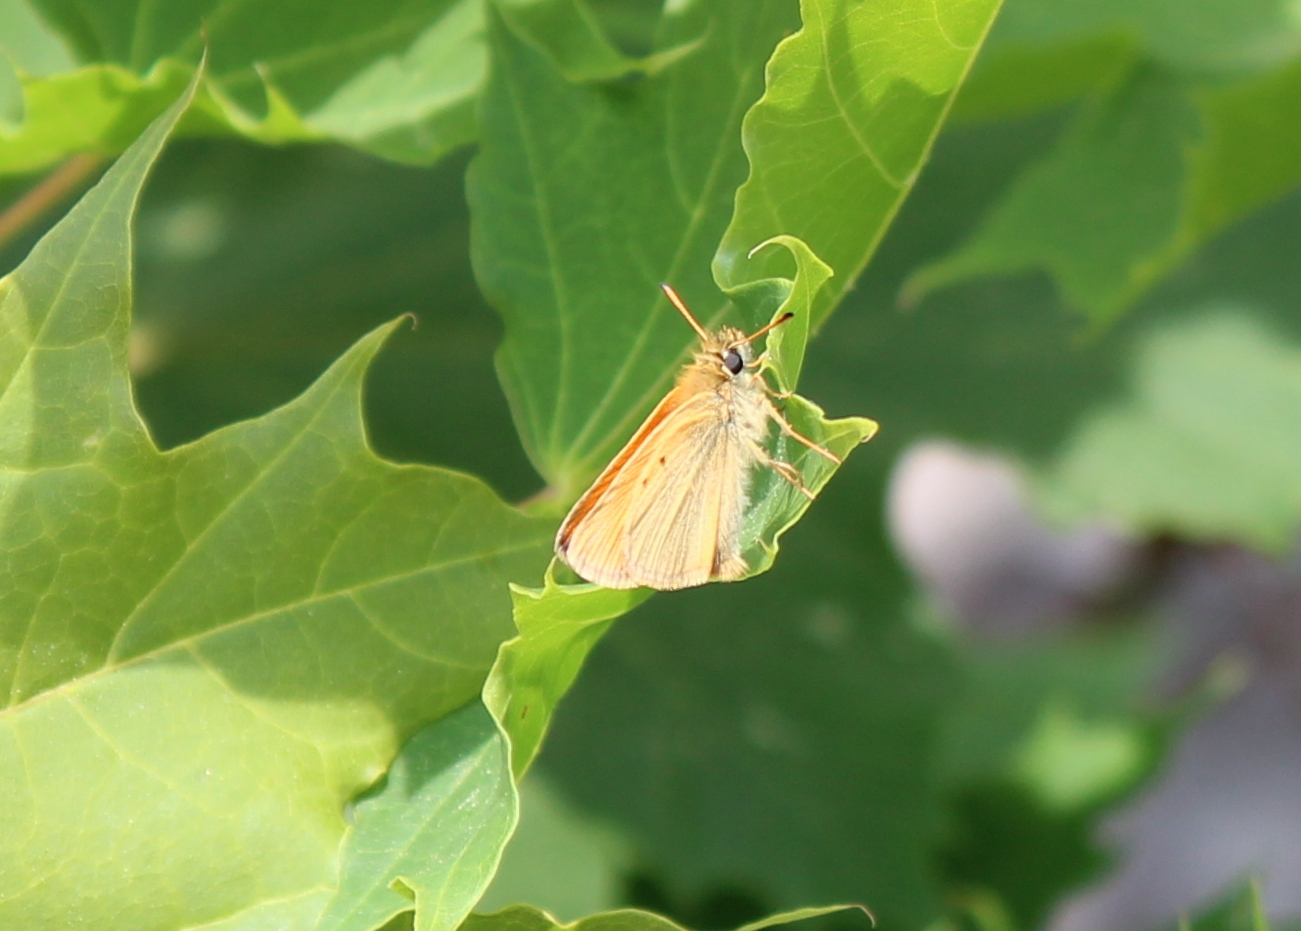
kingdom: Animalia
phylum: Arthropoda
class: Insecta
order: Lepidoptera
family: Hesperiidae
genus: Thymelicus
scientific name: Thymelicus lineola
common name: Essex skipper
